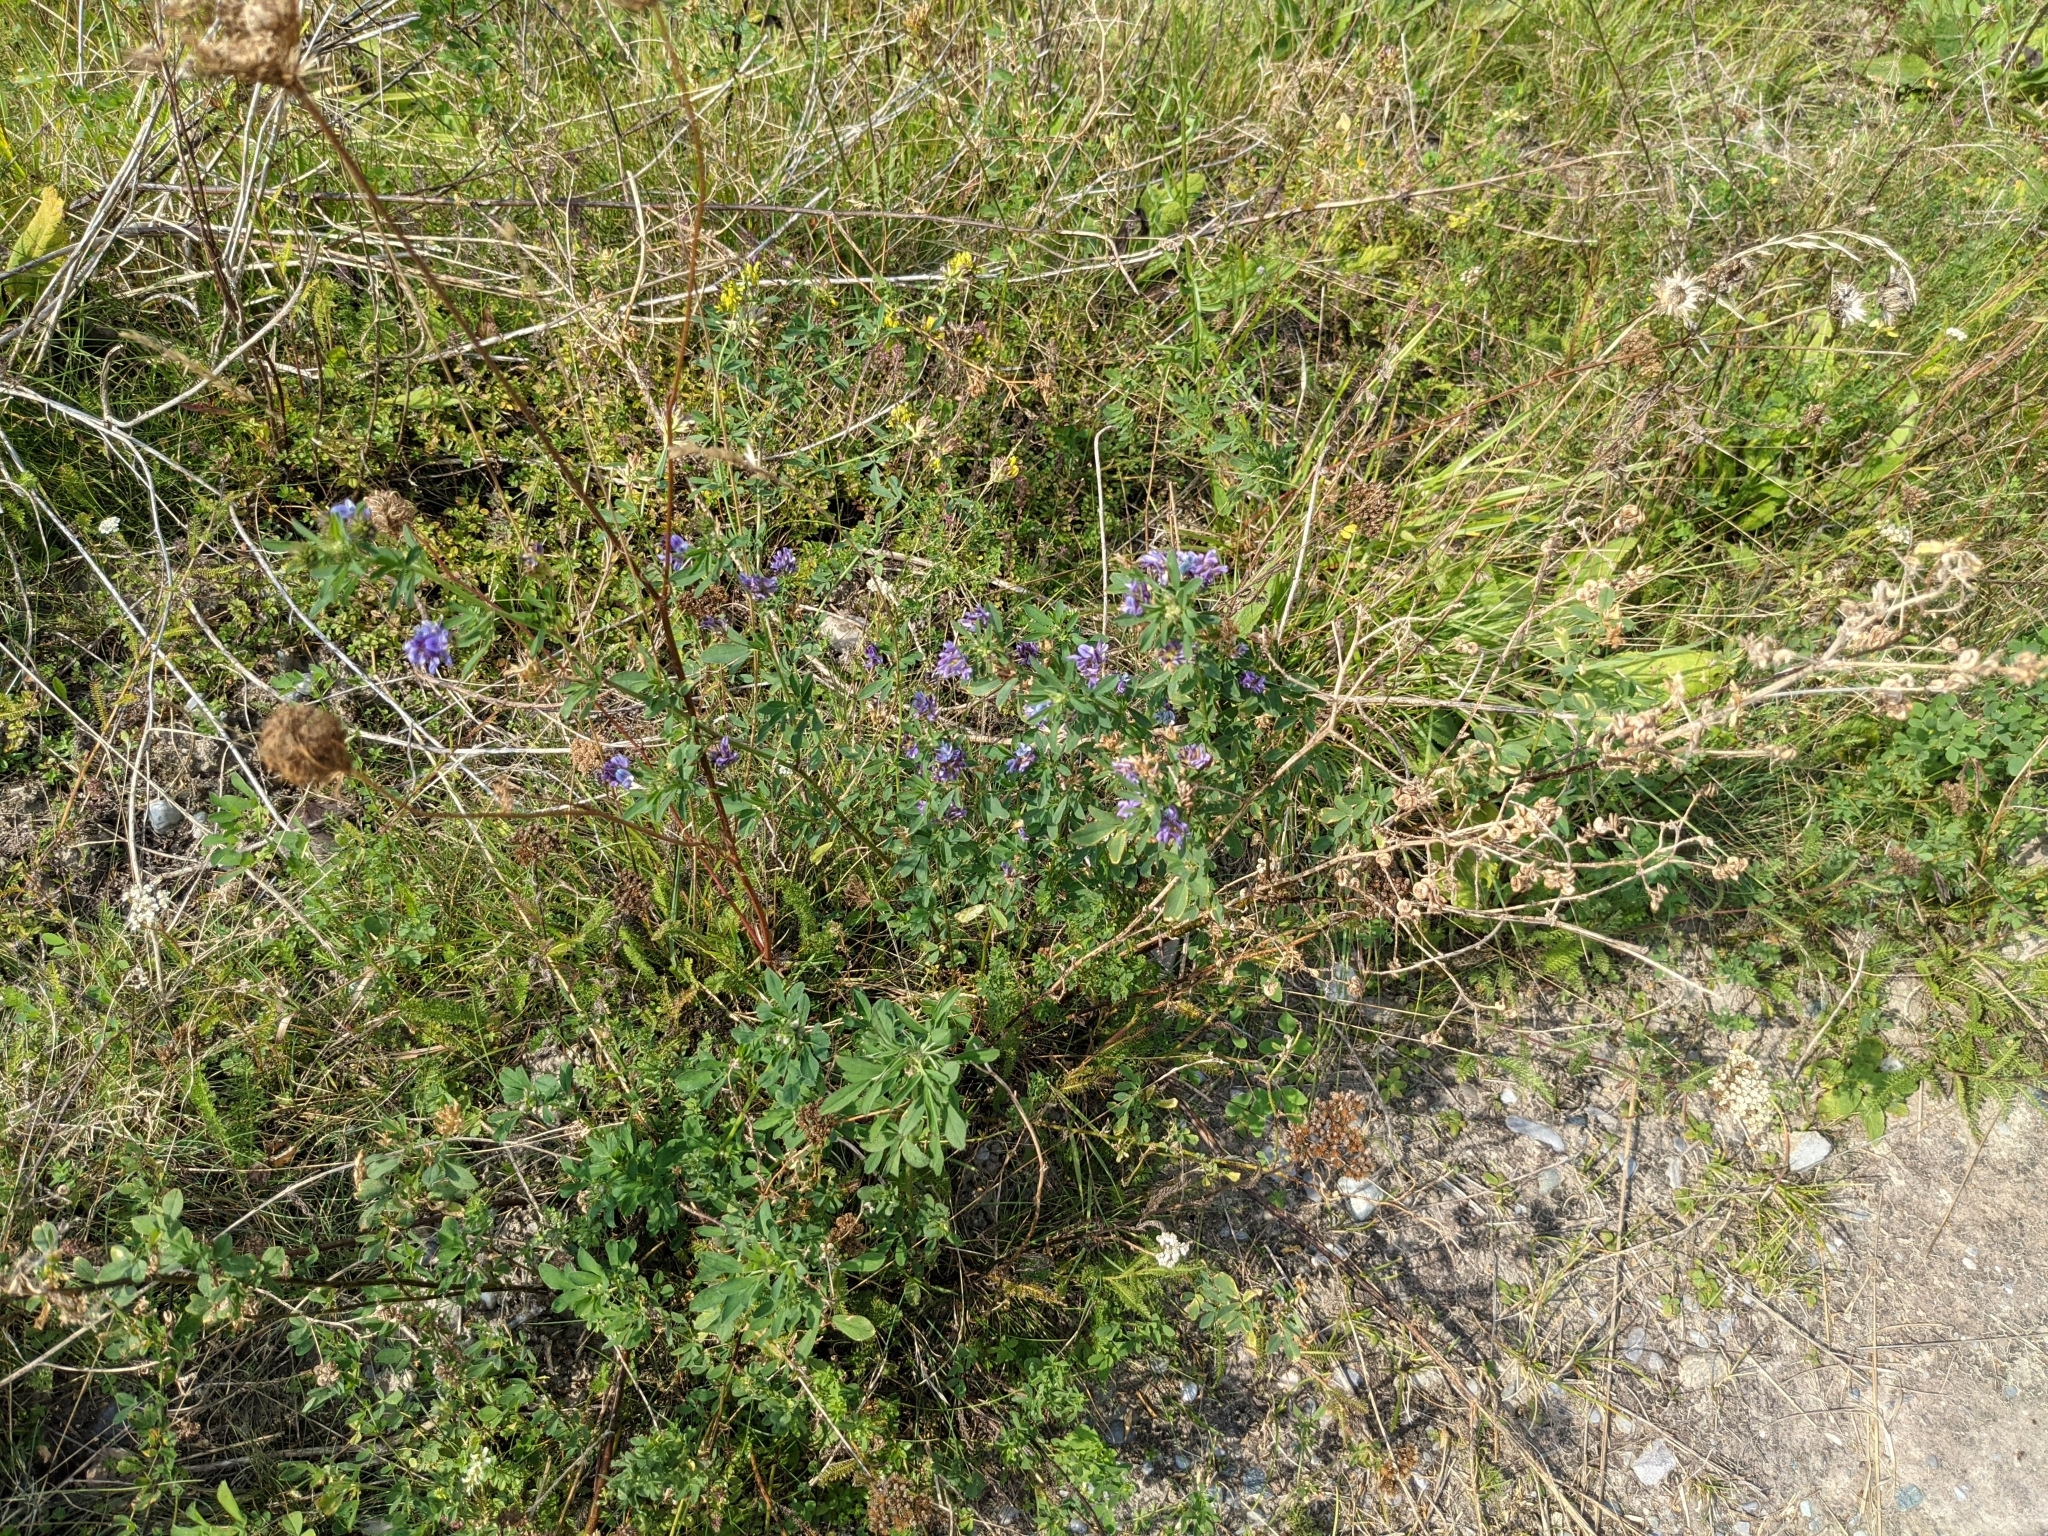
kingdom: Plantae
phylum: Tracheophyta
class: Magnoliopsida
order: Fabales
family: Fabaceae
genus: Medicago
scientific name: Medicago sativa
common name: Alfalfa
